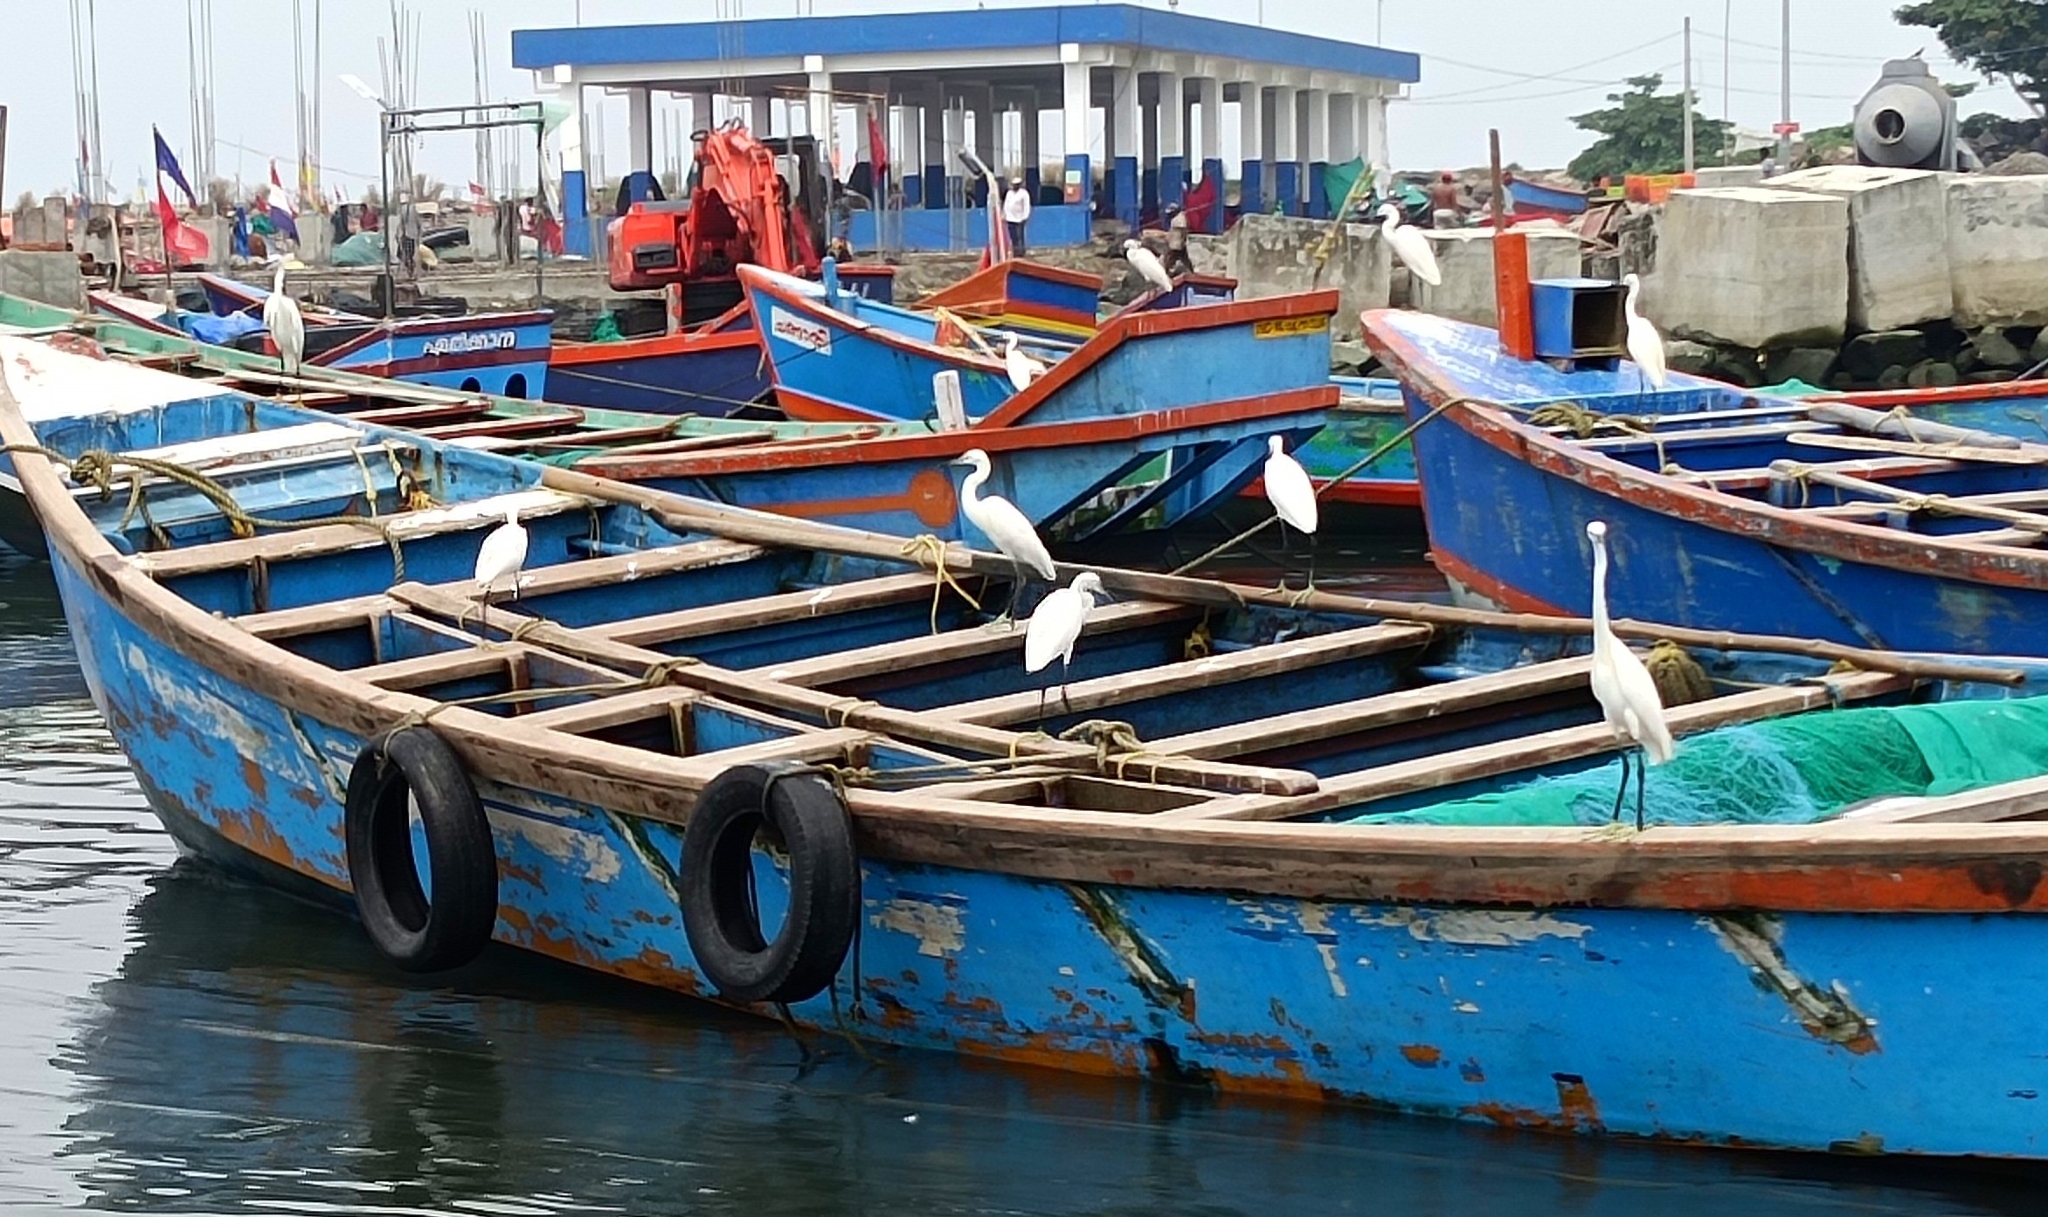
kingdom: Animalia
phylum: Chordata
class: Aves
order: Pelecaniformes
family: Ardeidae
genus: Egretta
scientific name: Egretta garzetta
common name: Little egret
